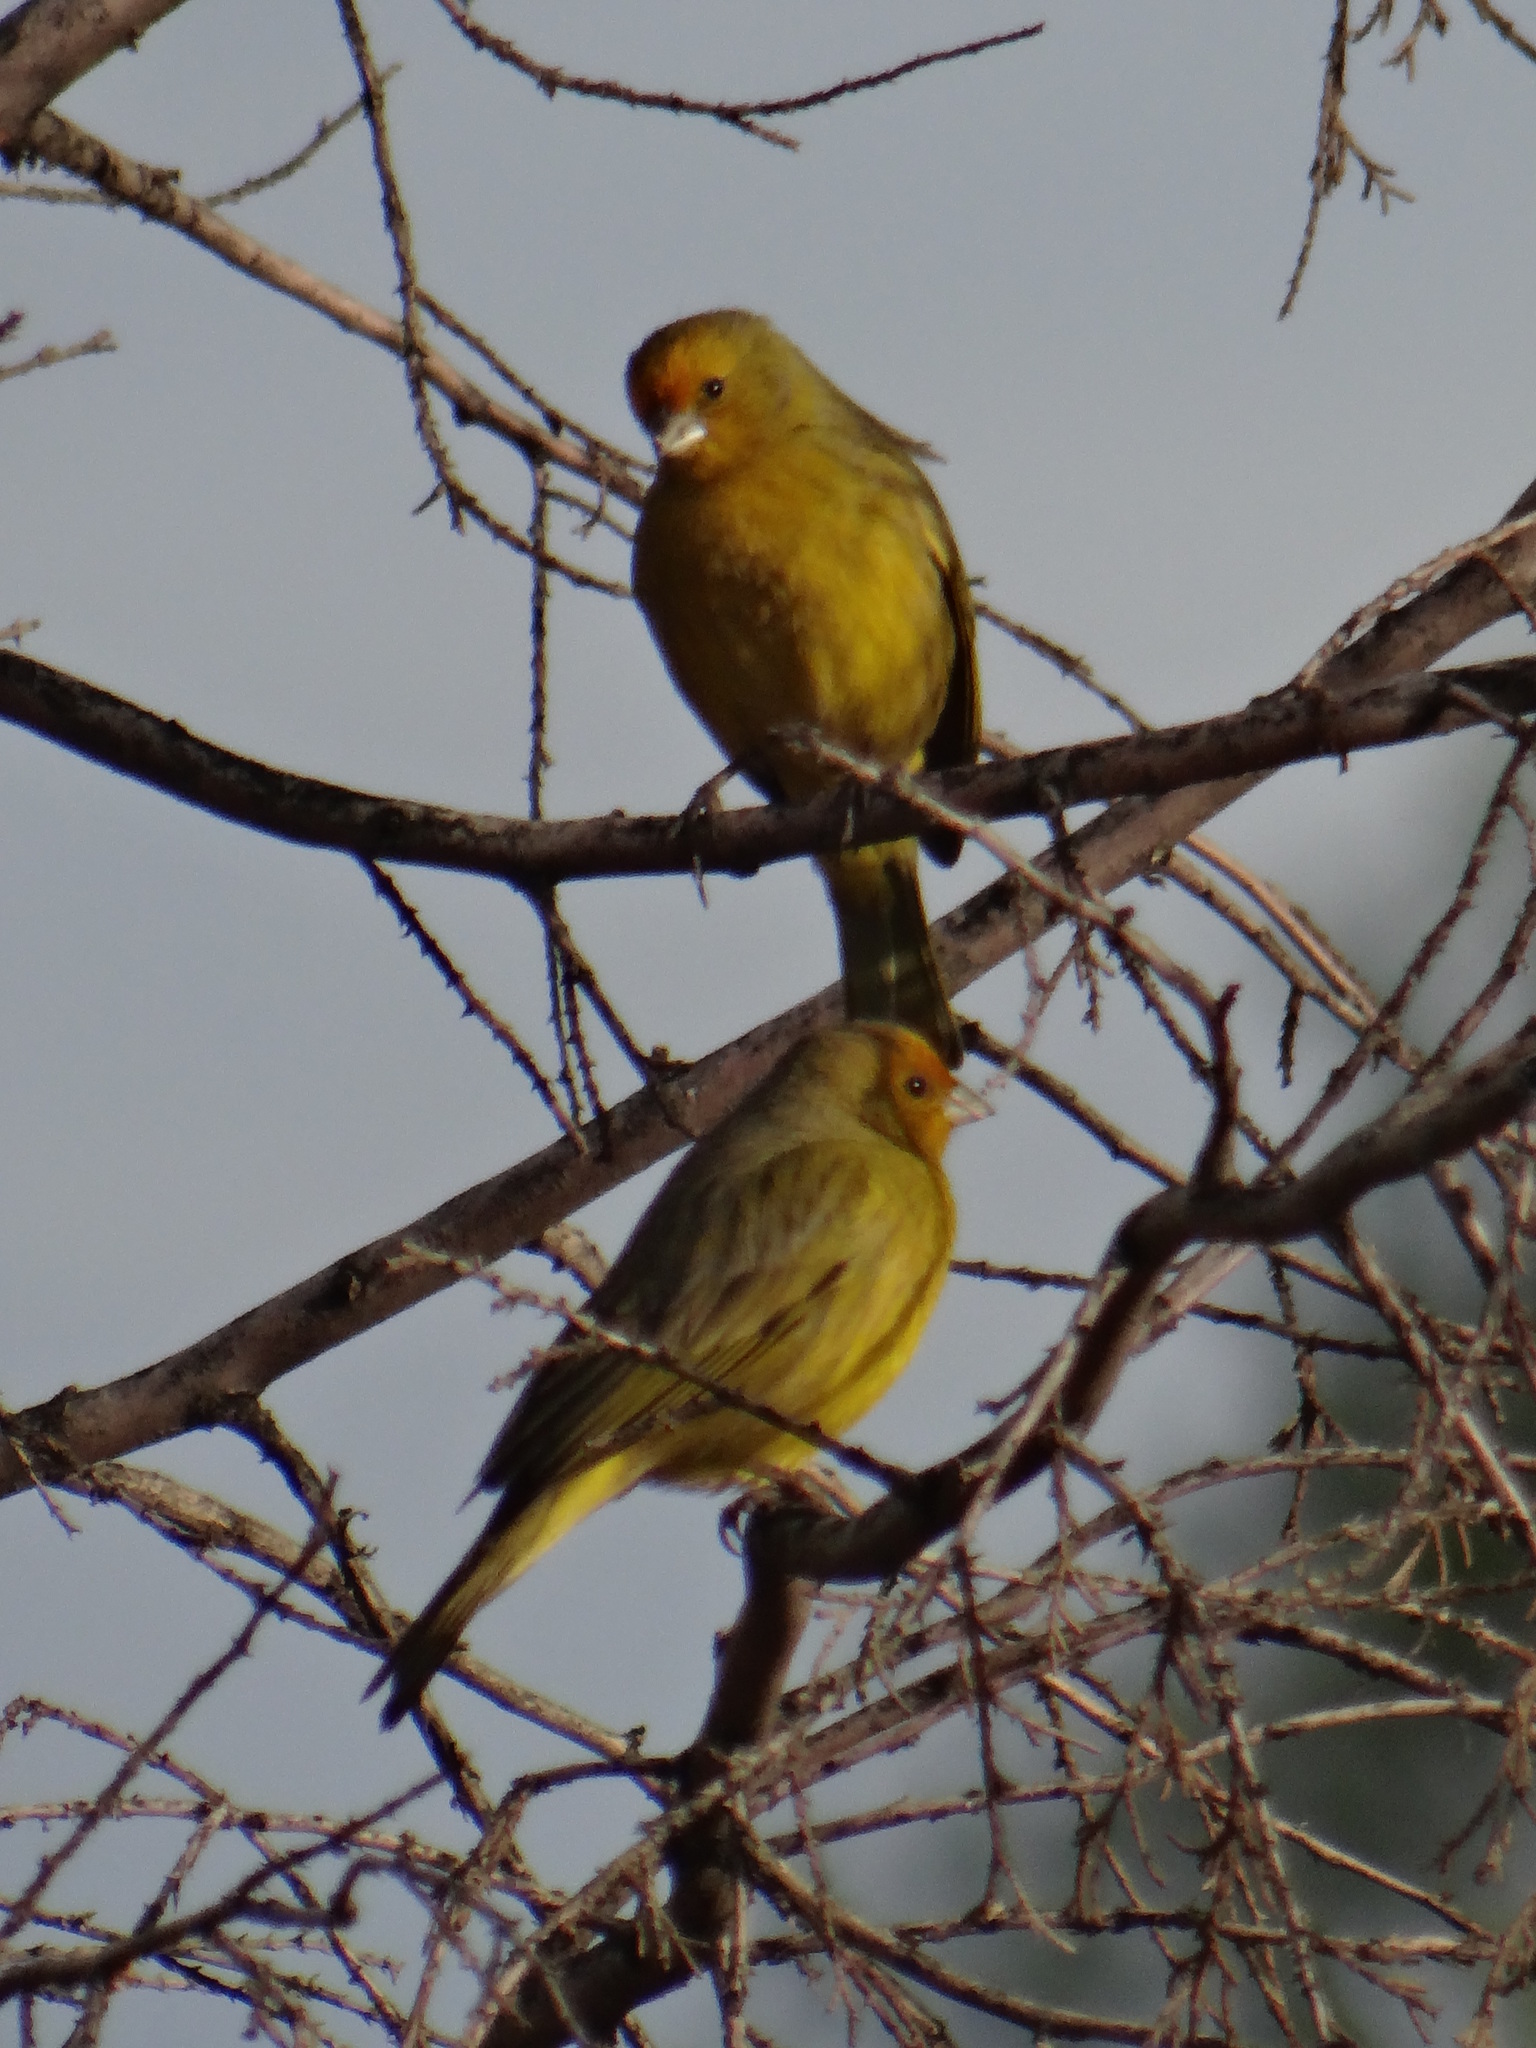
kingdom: Animalia
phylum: Chordata
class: Aves
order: Passeriformes
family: Thraupidae
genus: Sicalis
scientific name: Sicalis flaveola
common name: Saffron finch
